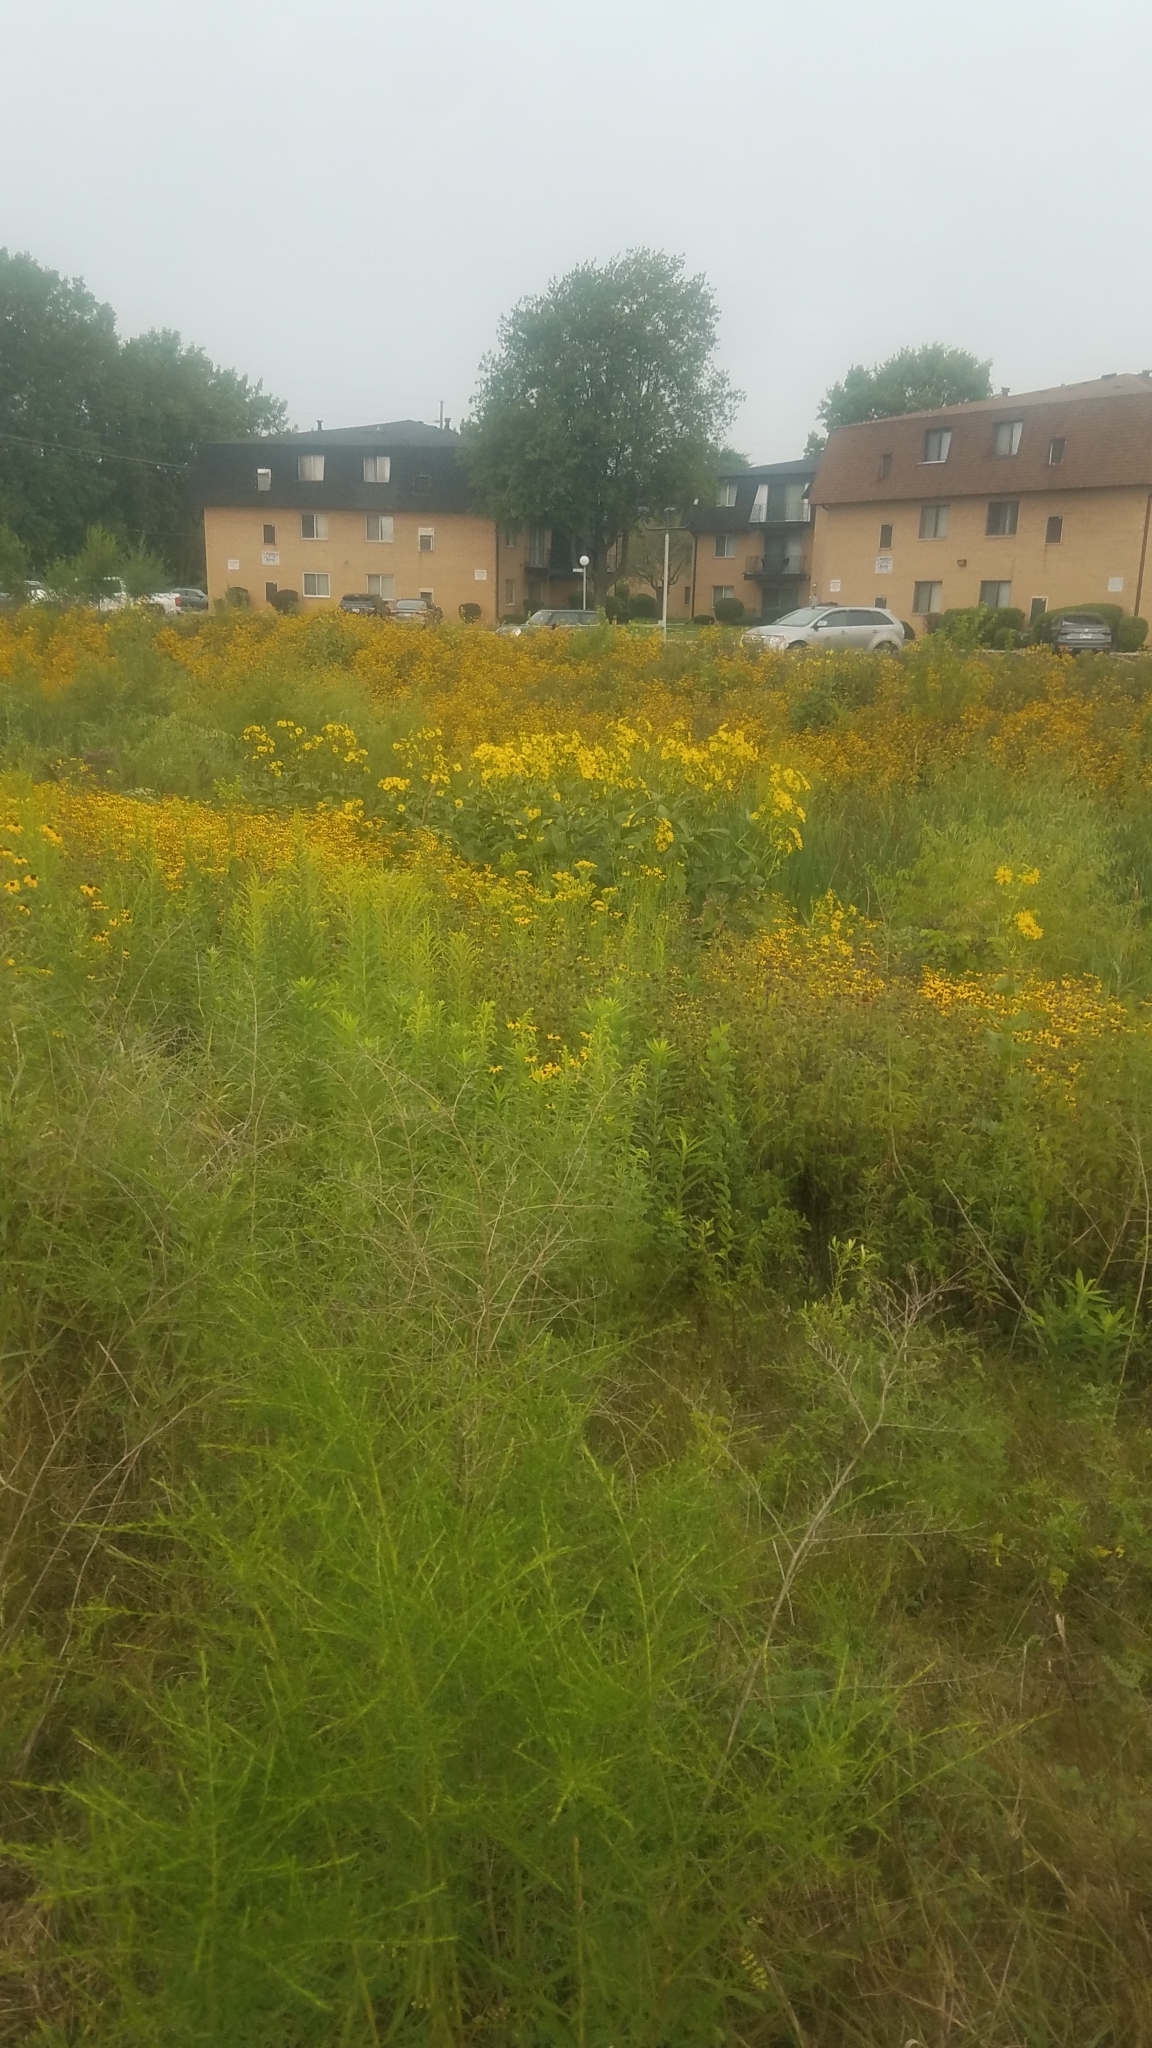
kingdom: Plantae
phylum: Tracheophyta
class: Magnoliopsida
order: Asterales
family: Asteraceae
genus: Silphium
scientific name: Silphium perfoliatum
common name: Cup-plant
